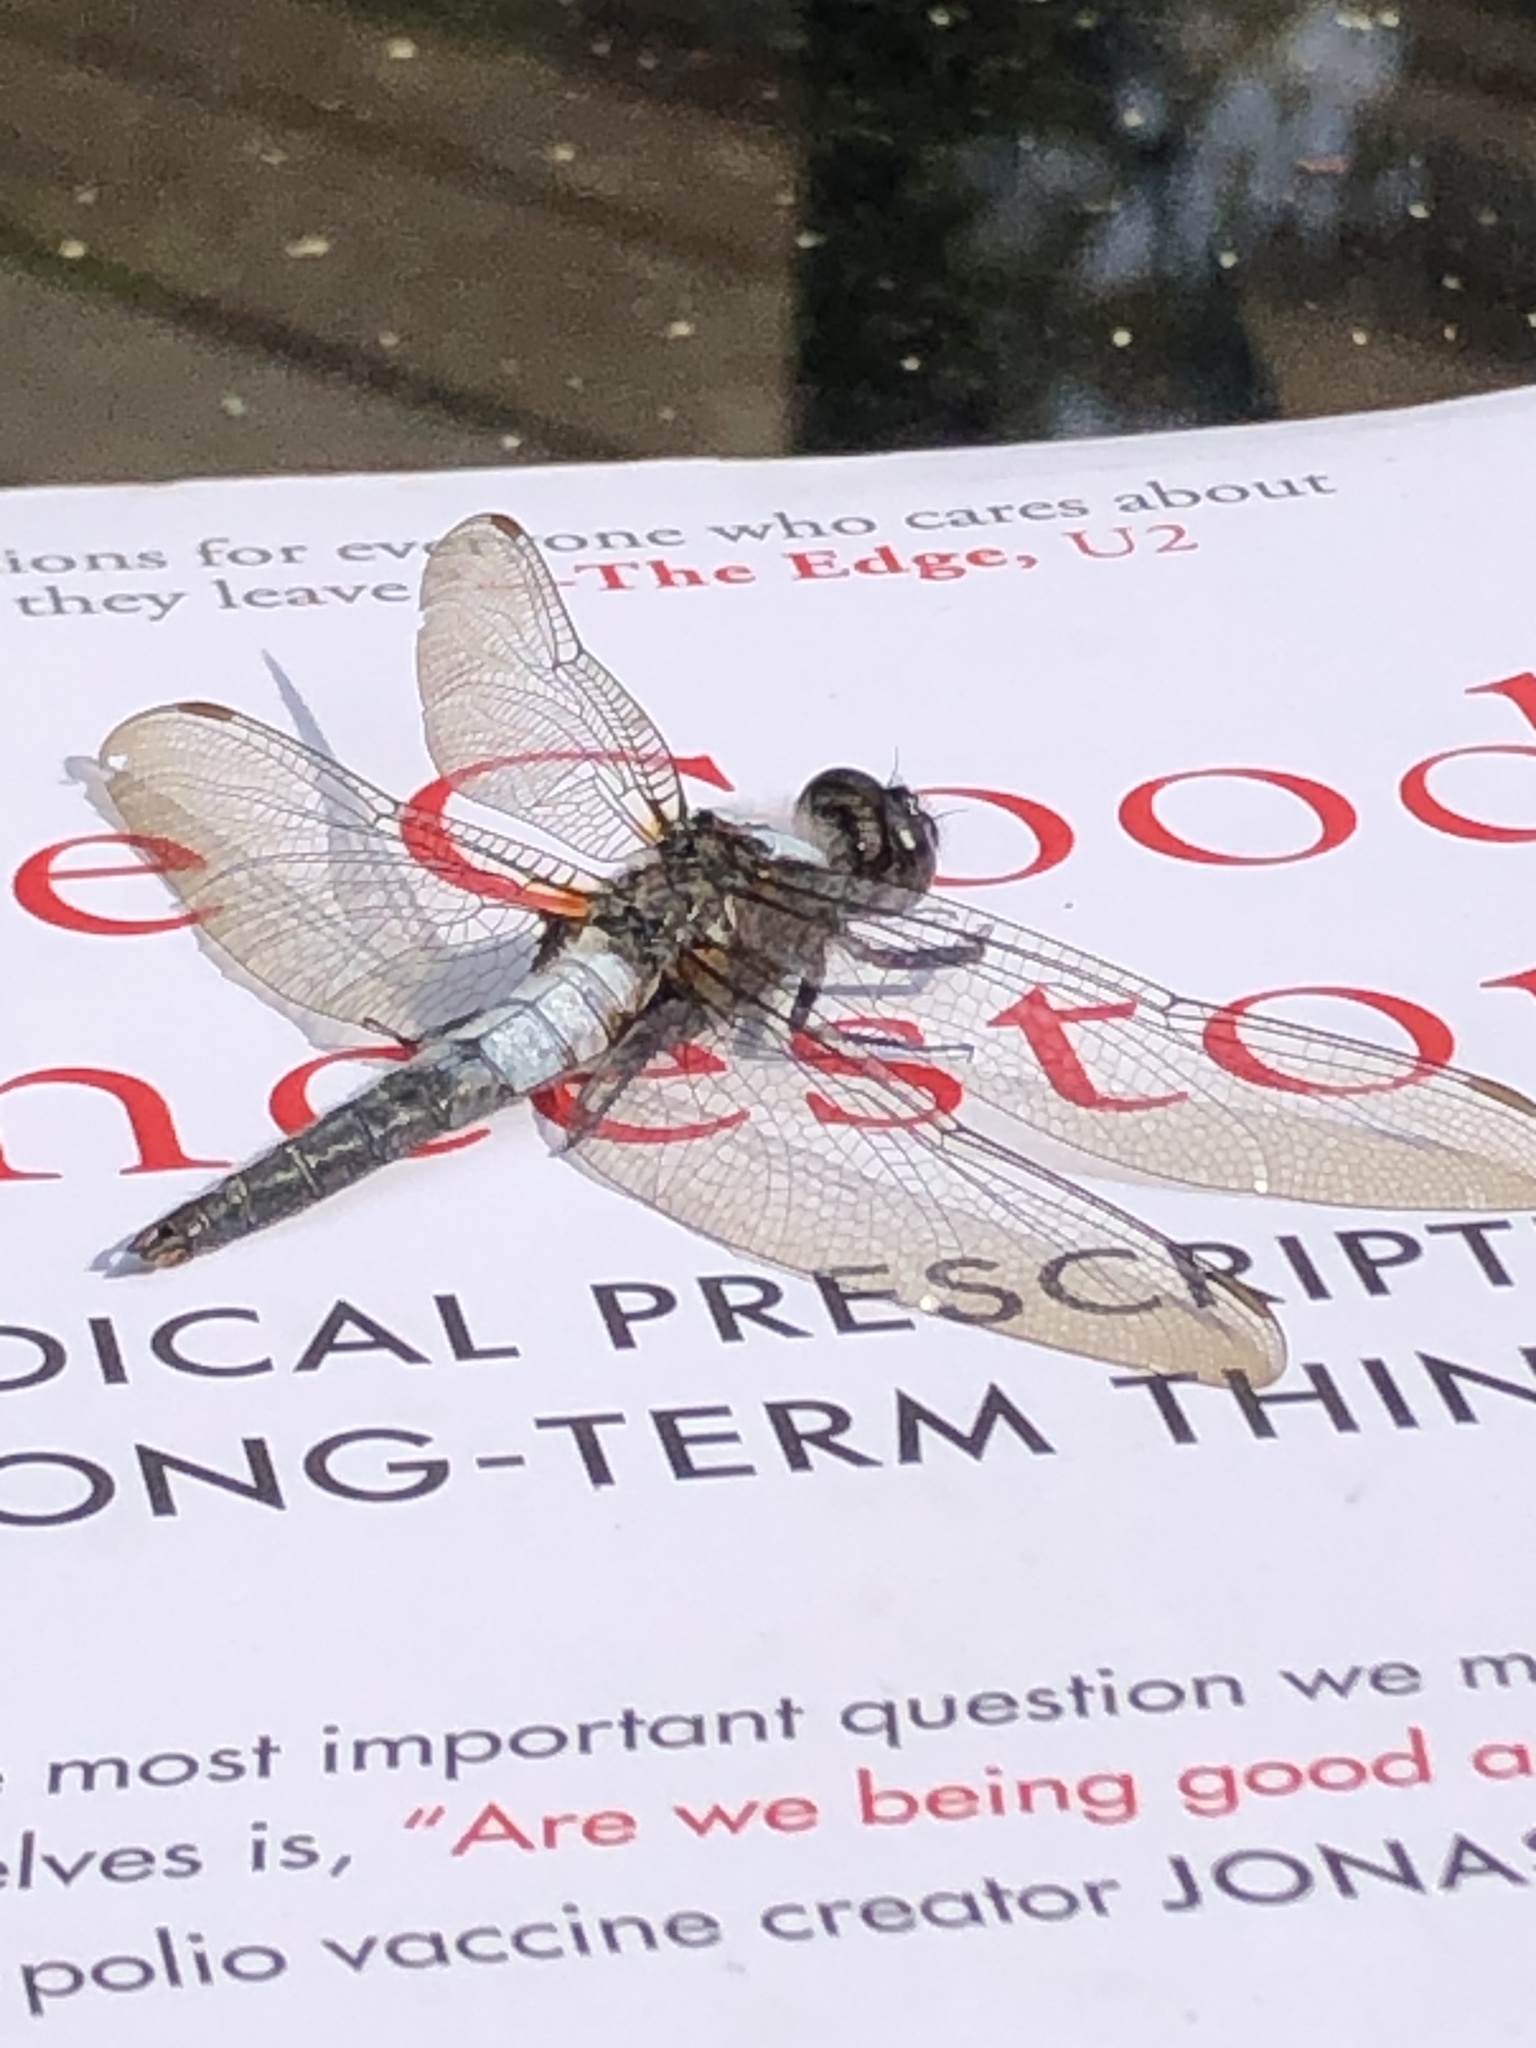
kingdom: Animalia
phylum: Arthropoda
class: Insecta
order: Odonata
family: Libellulidae
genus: Ladona
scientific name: Ladona julia
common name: Chalk-fronted corporal
